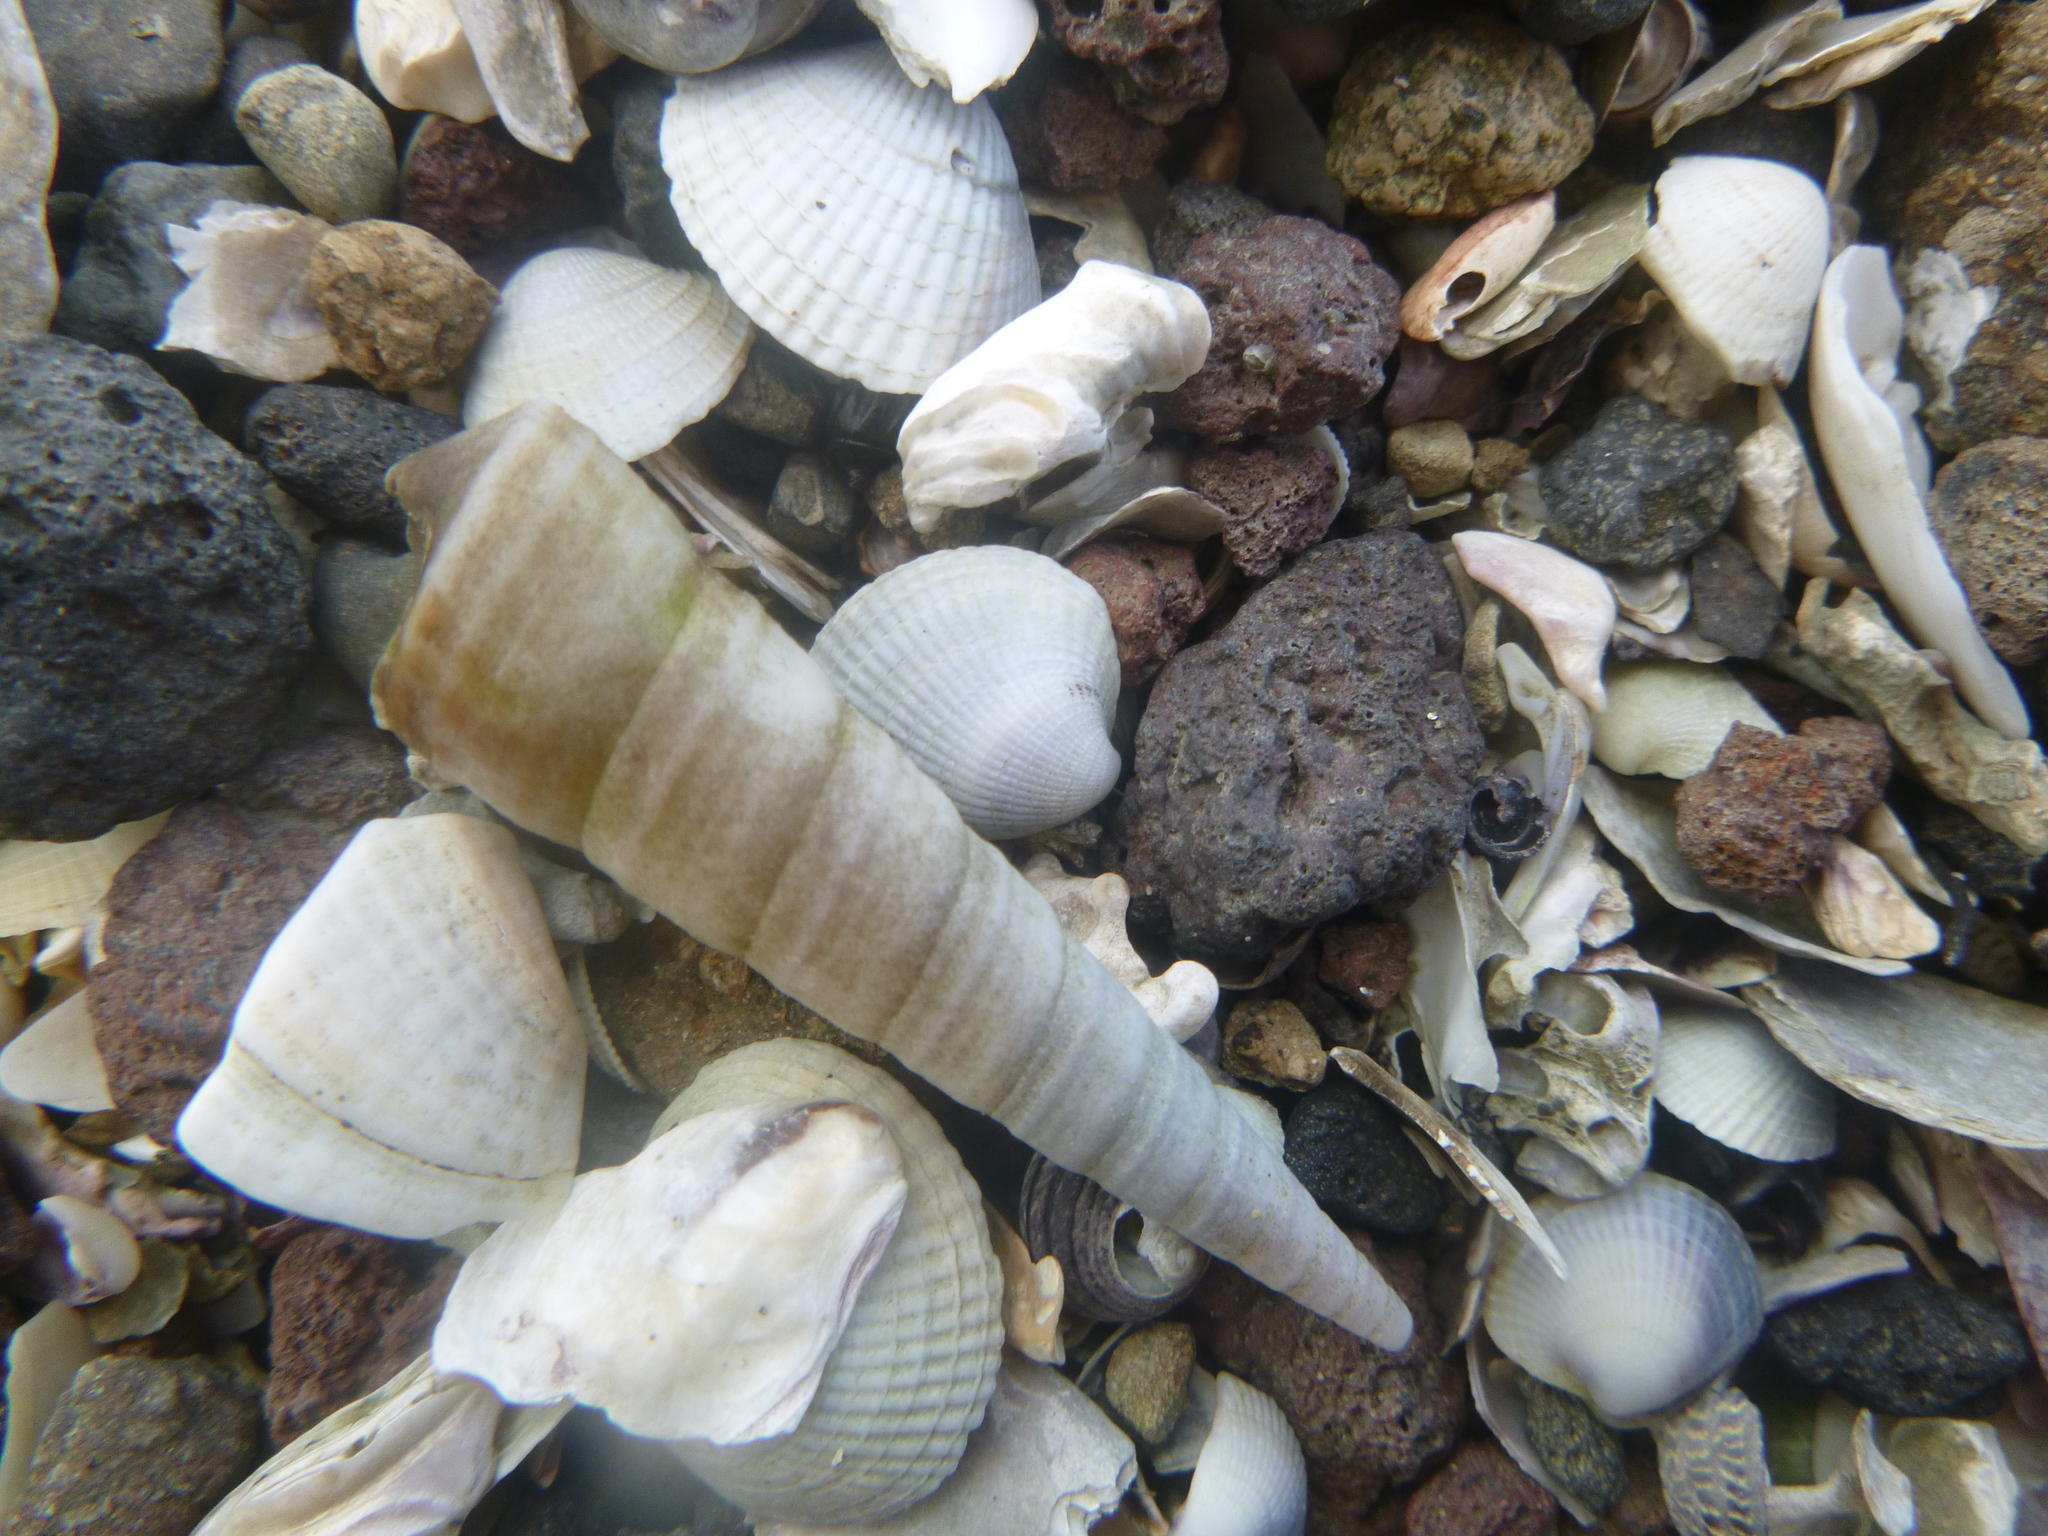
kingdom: Animalia
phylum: Mollusca
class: Gastropoda
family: Turritellidae
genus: Maoricolpus
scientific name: Maoricolpus roseus
